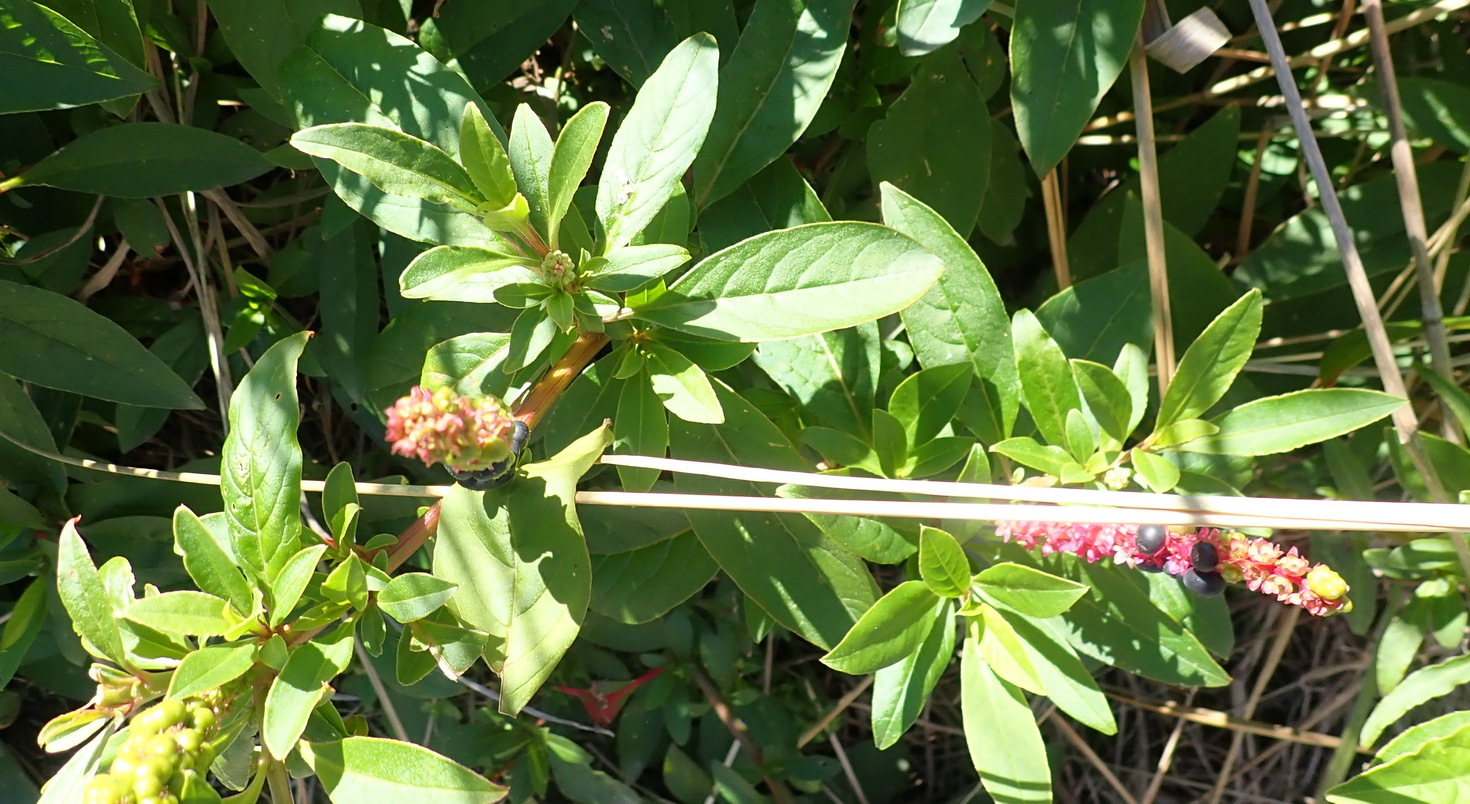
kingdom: Plantae
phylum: Tracheophyta
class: Magnoliopsida
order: Caryophyllales
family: Phytolaccaceae
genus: Phytolacca
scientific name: Phytolacca icosandra
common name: Button pokeweed
